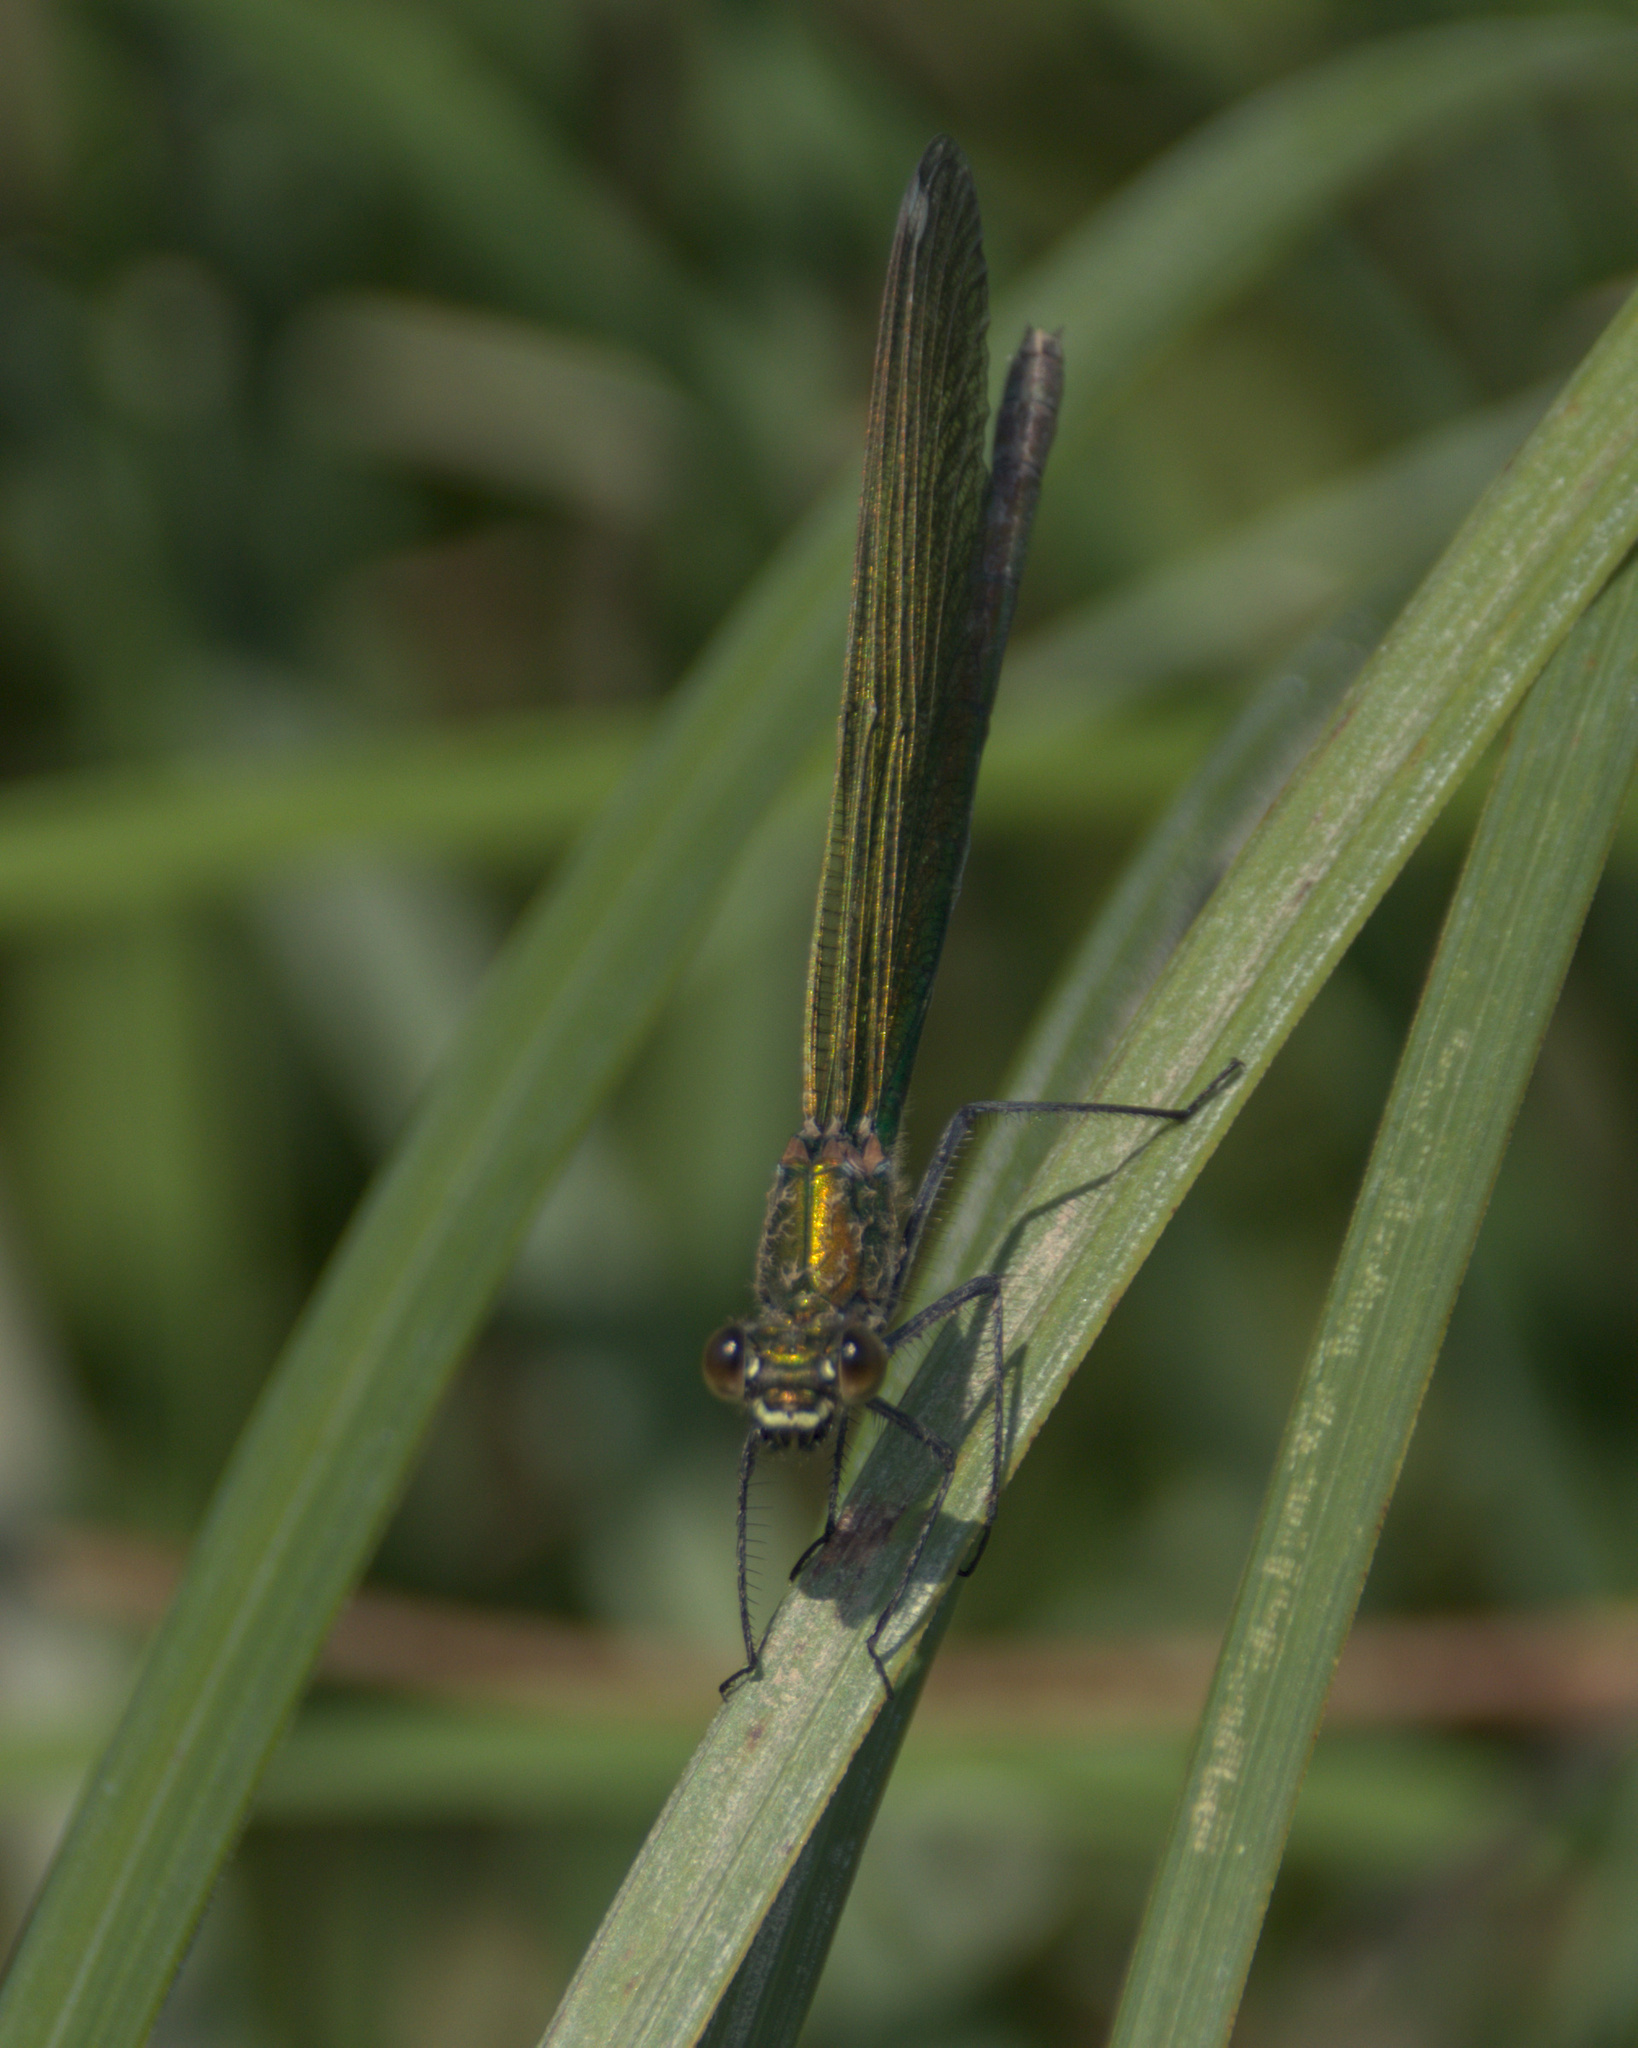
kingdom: Animalia
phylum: Arthropoda
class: Insecta
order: Odonata
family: Calopterygidae
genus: Calopteryx
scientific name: Calopteryx virgo
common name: Beautiful demoiselle
